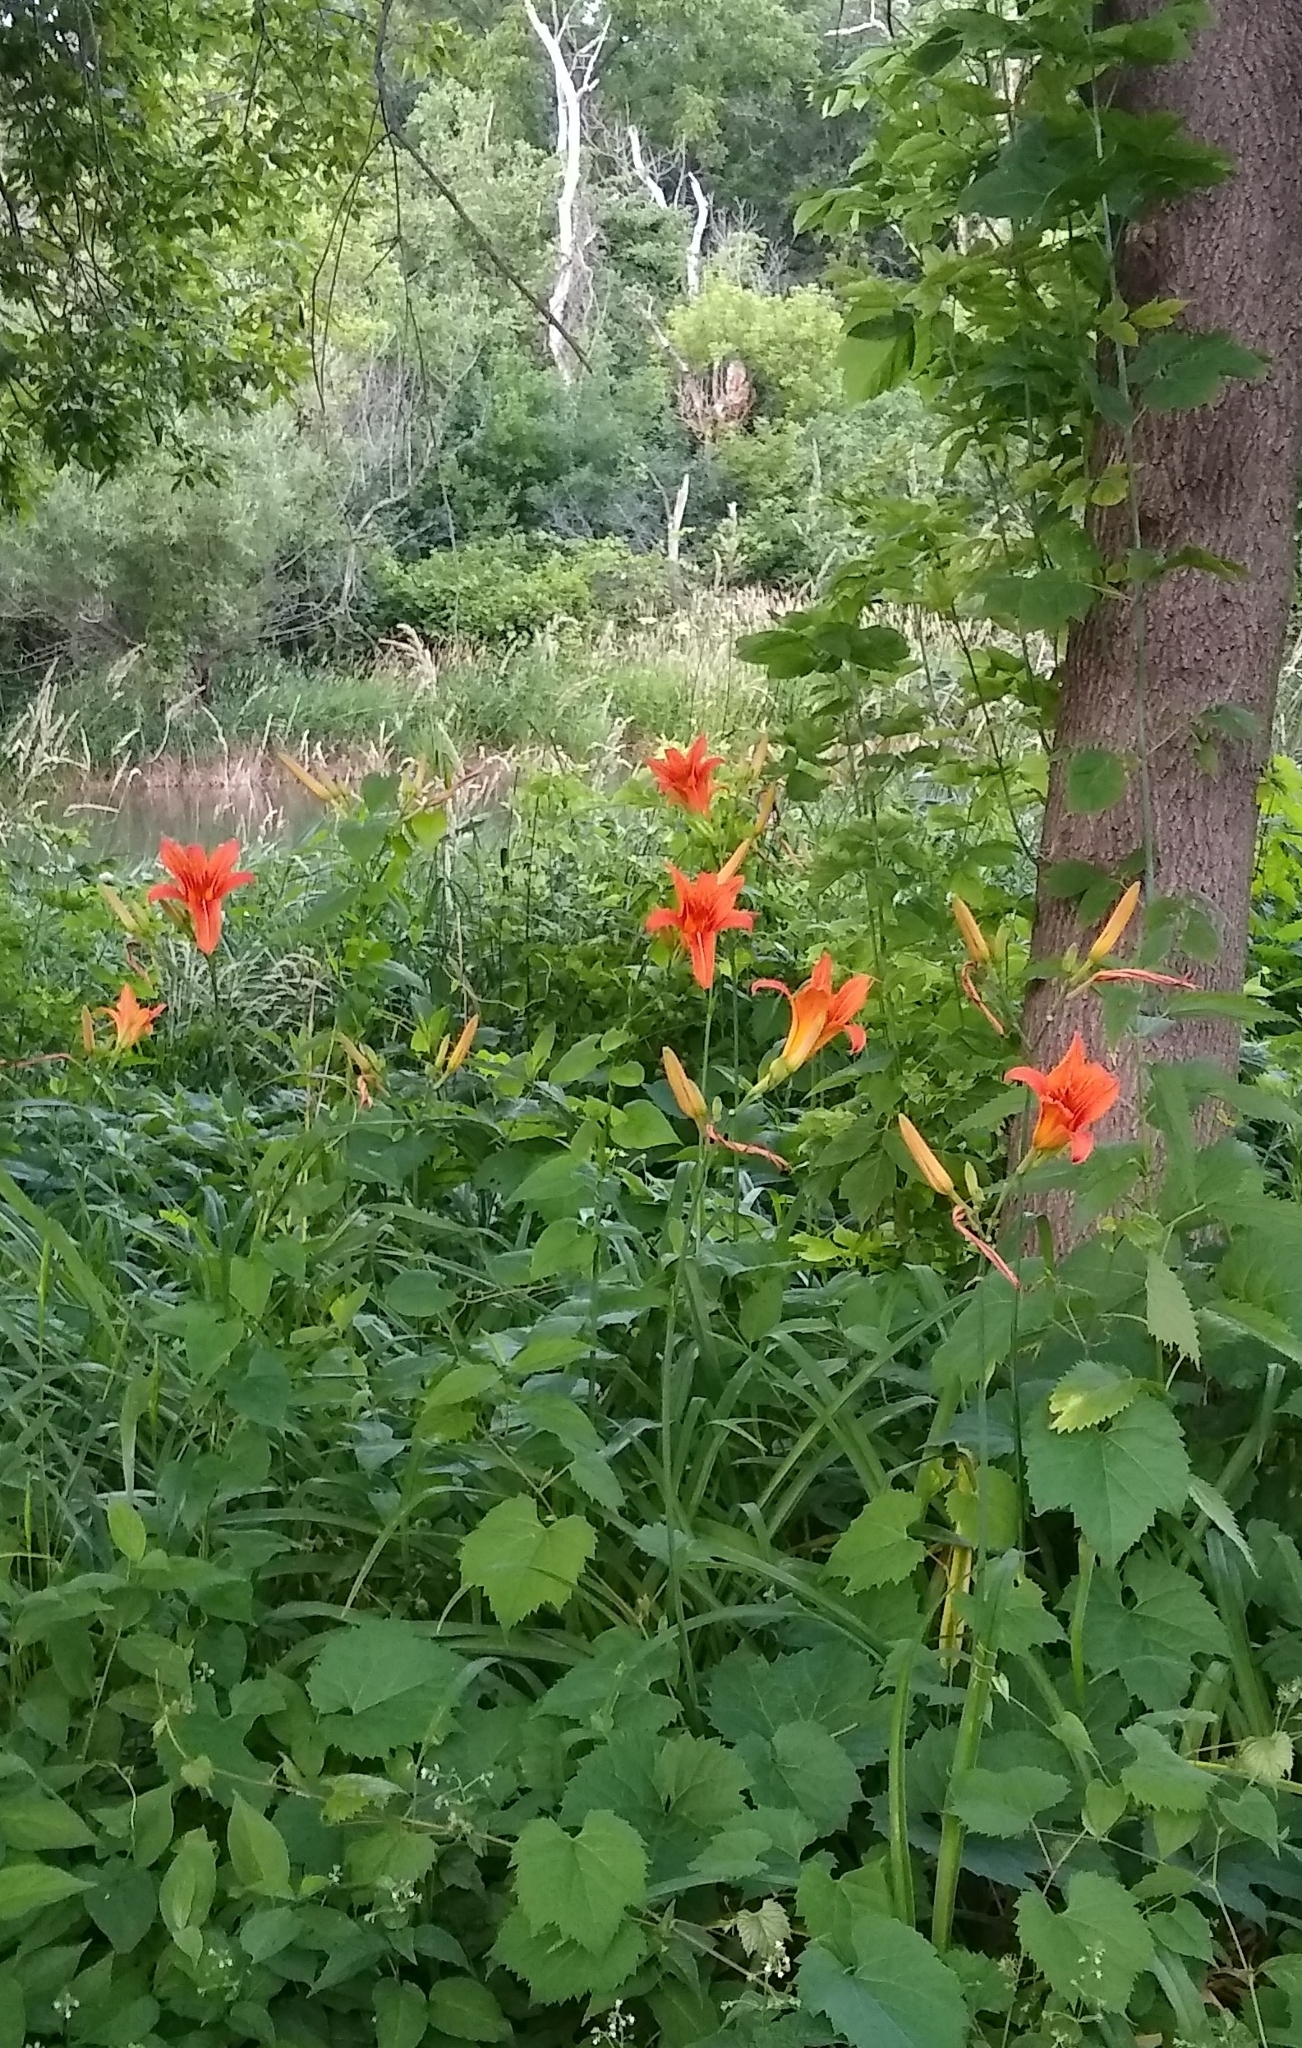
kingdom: Plantae
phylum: Tracheophyta
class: Liliopsida
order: Asparagales
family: Asphodelaceae
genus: Hemerocallis
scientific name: Hemerocallis fulva
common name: Orange day-lily
